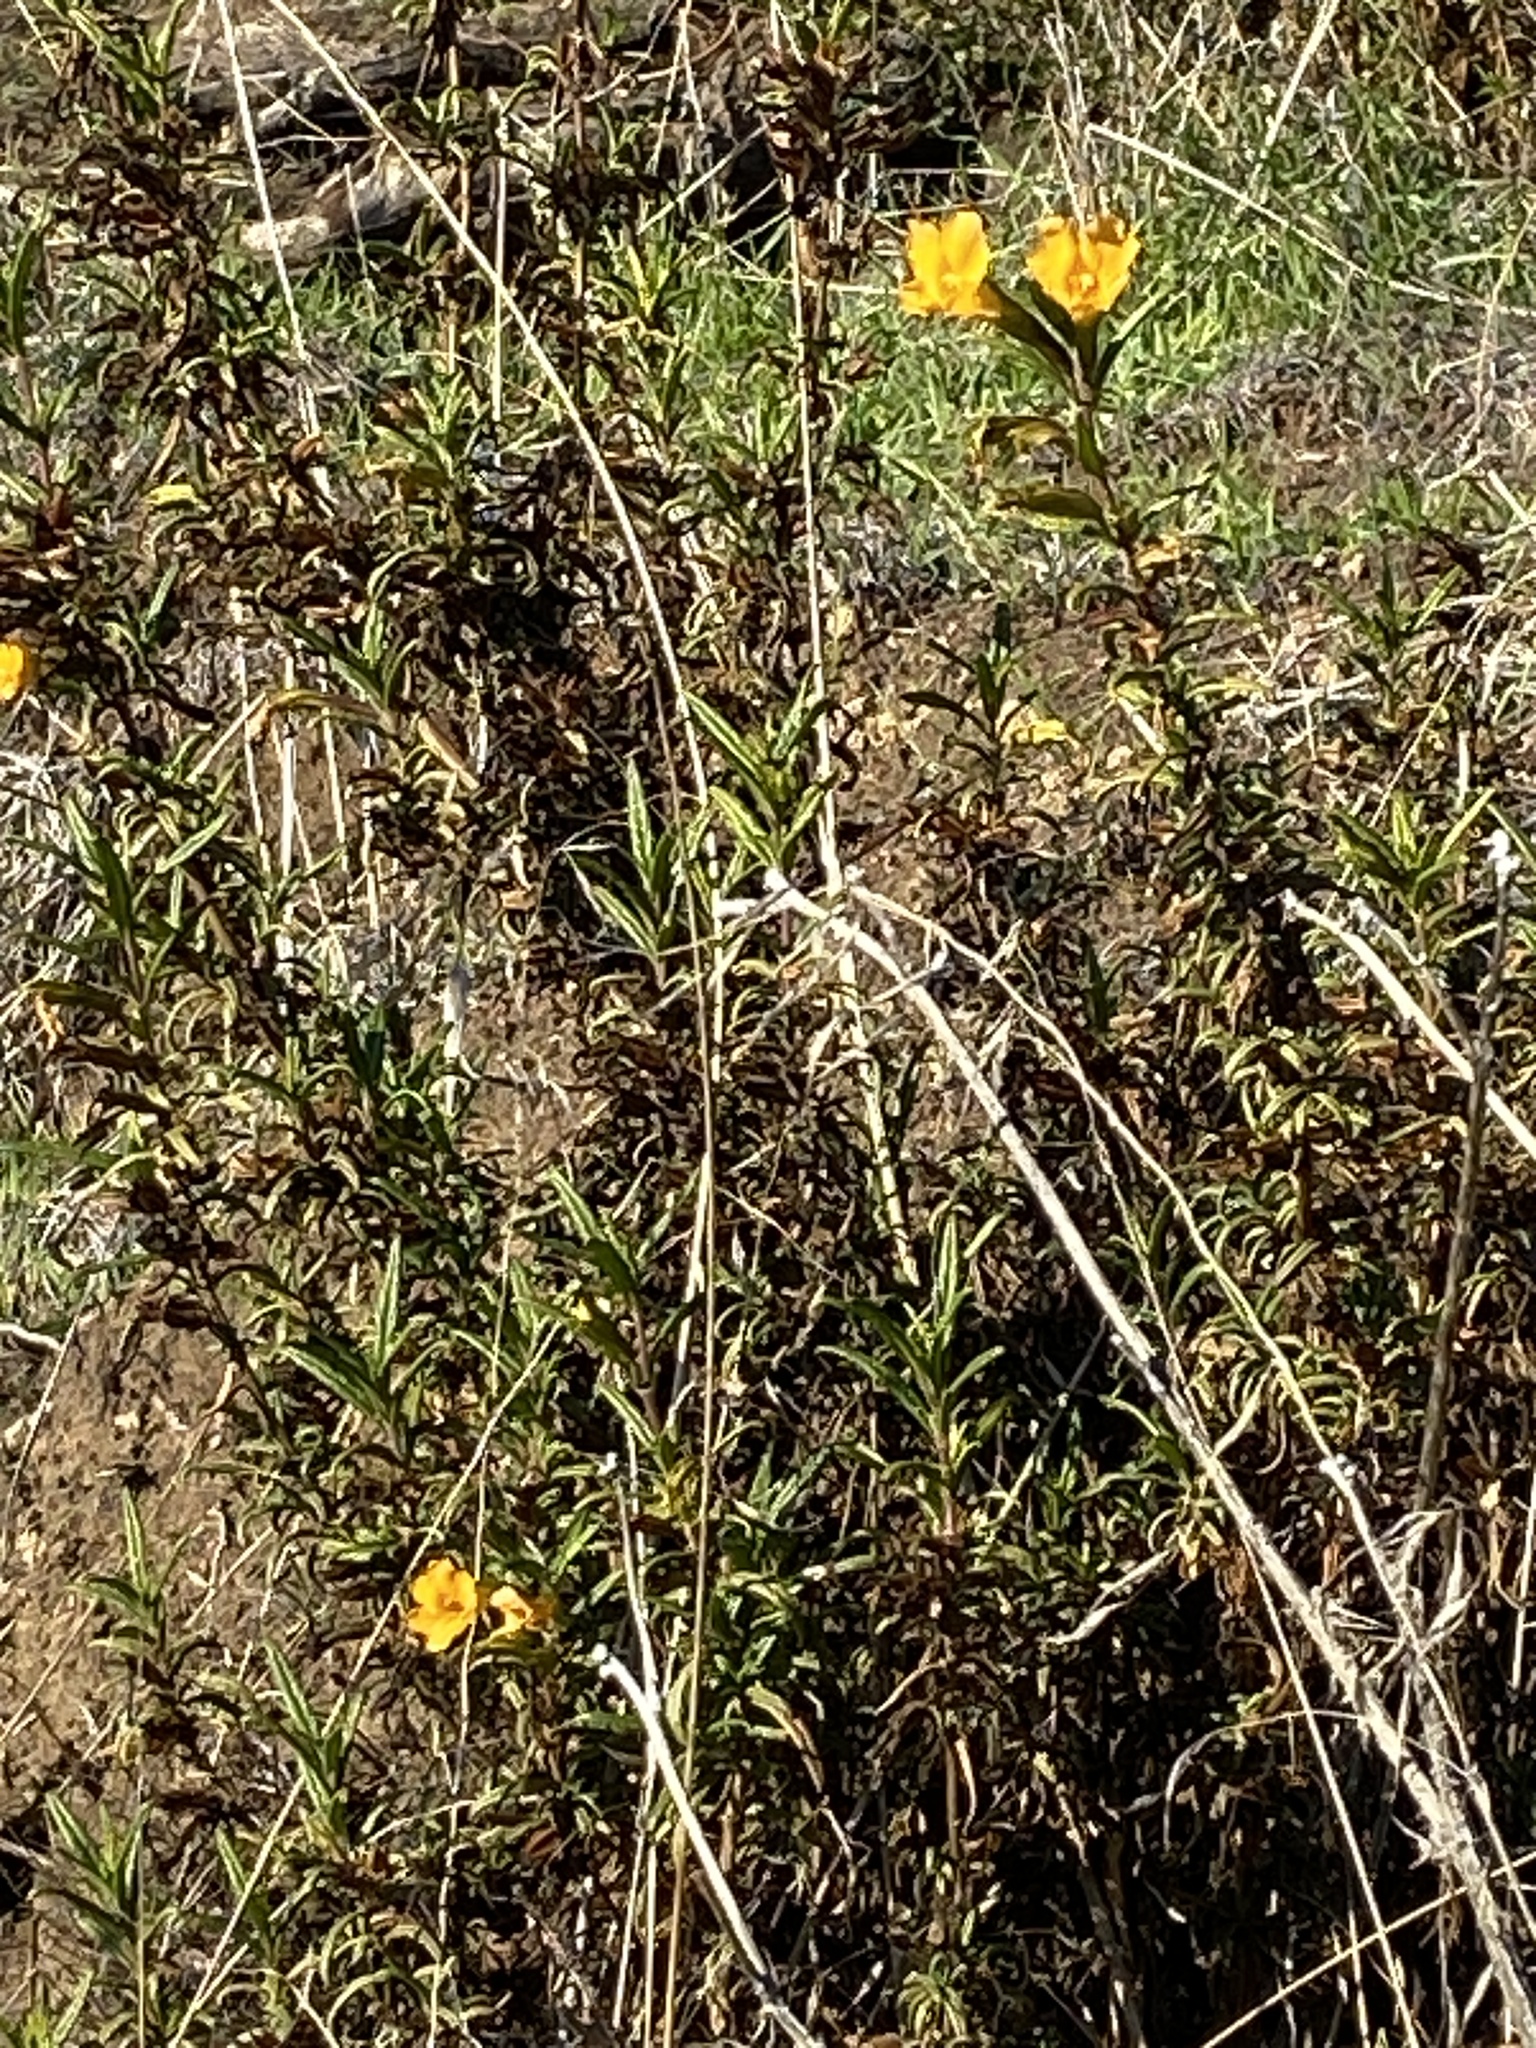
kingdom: Plantae
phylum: Tracheophyta
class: Magnoliopsida
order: Lamiales
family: Phrymaceae
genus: Diplacus
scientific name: Diplacus aurantiacus
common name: Bush monkey-flower
